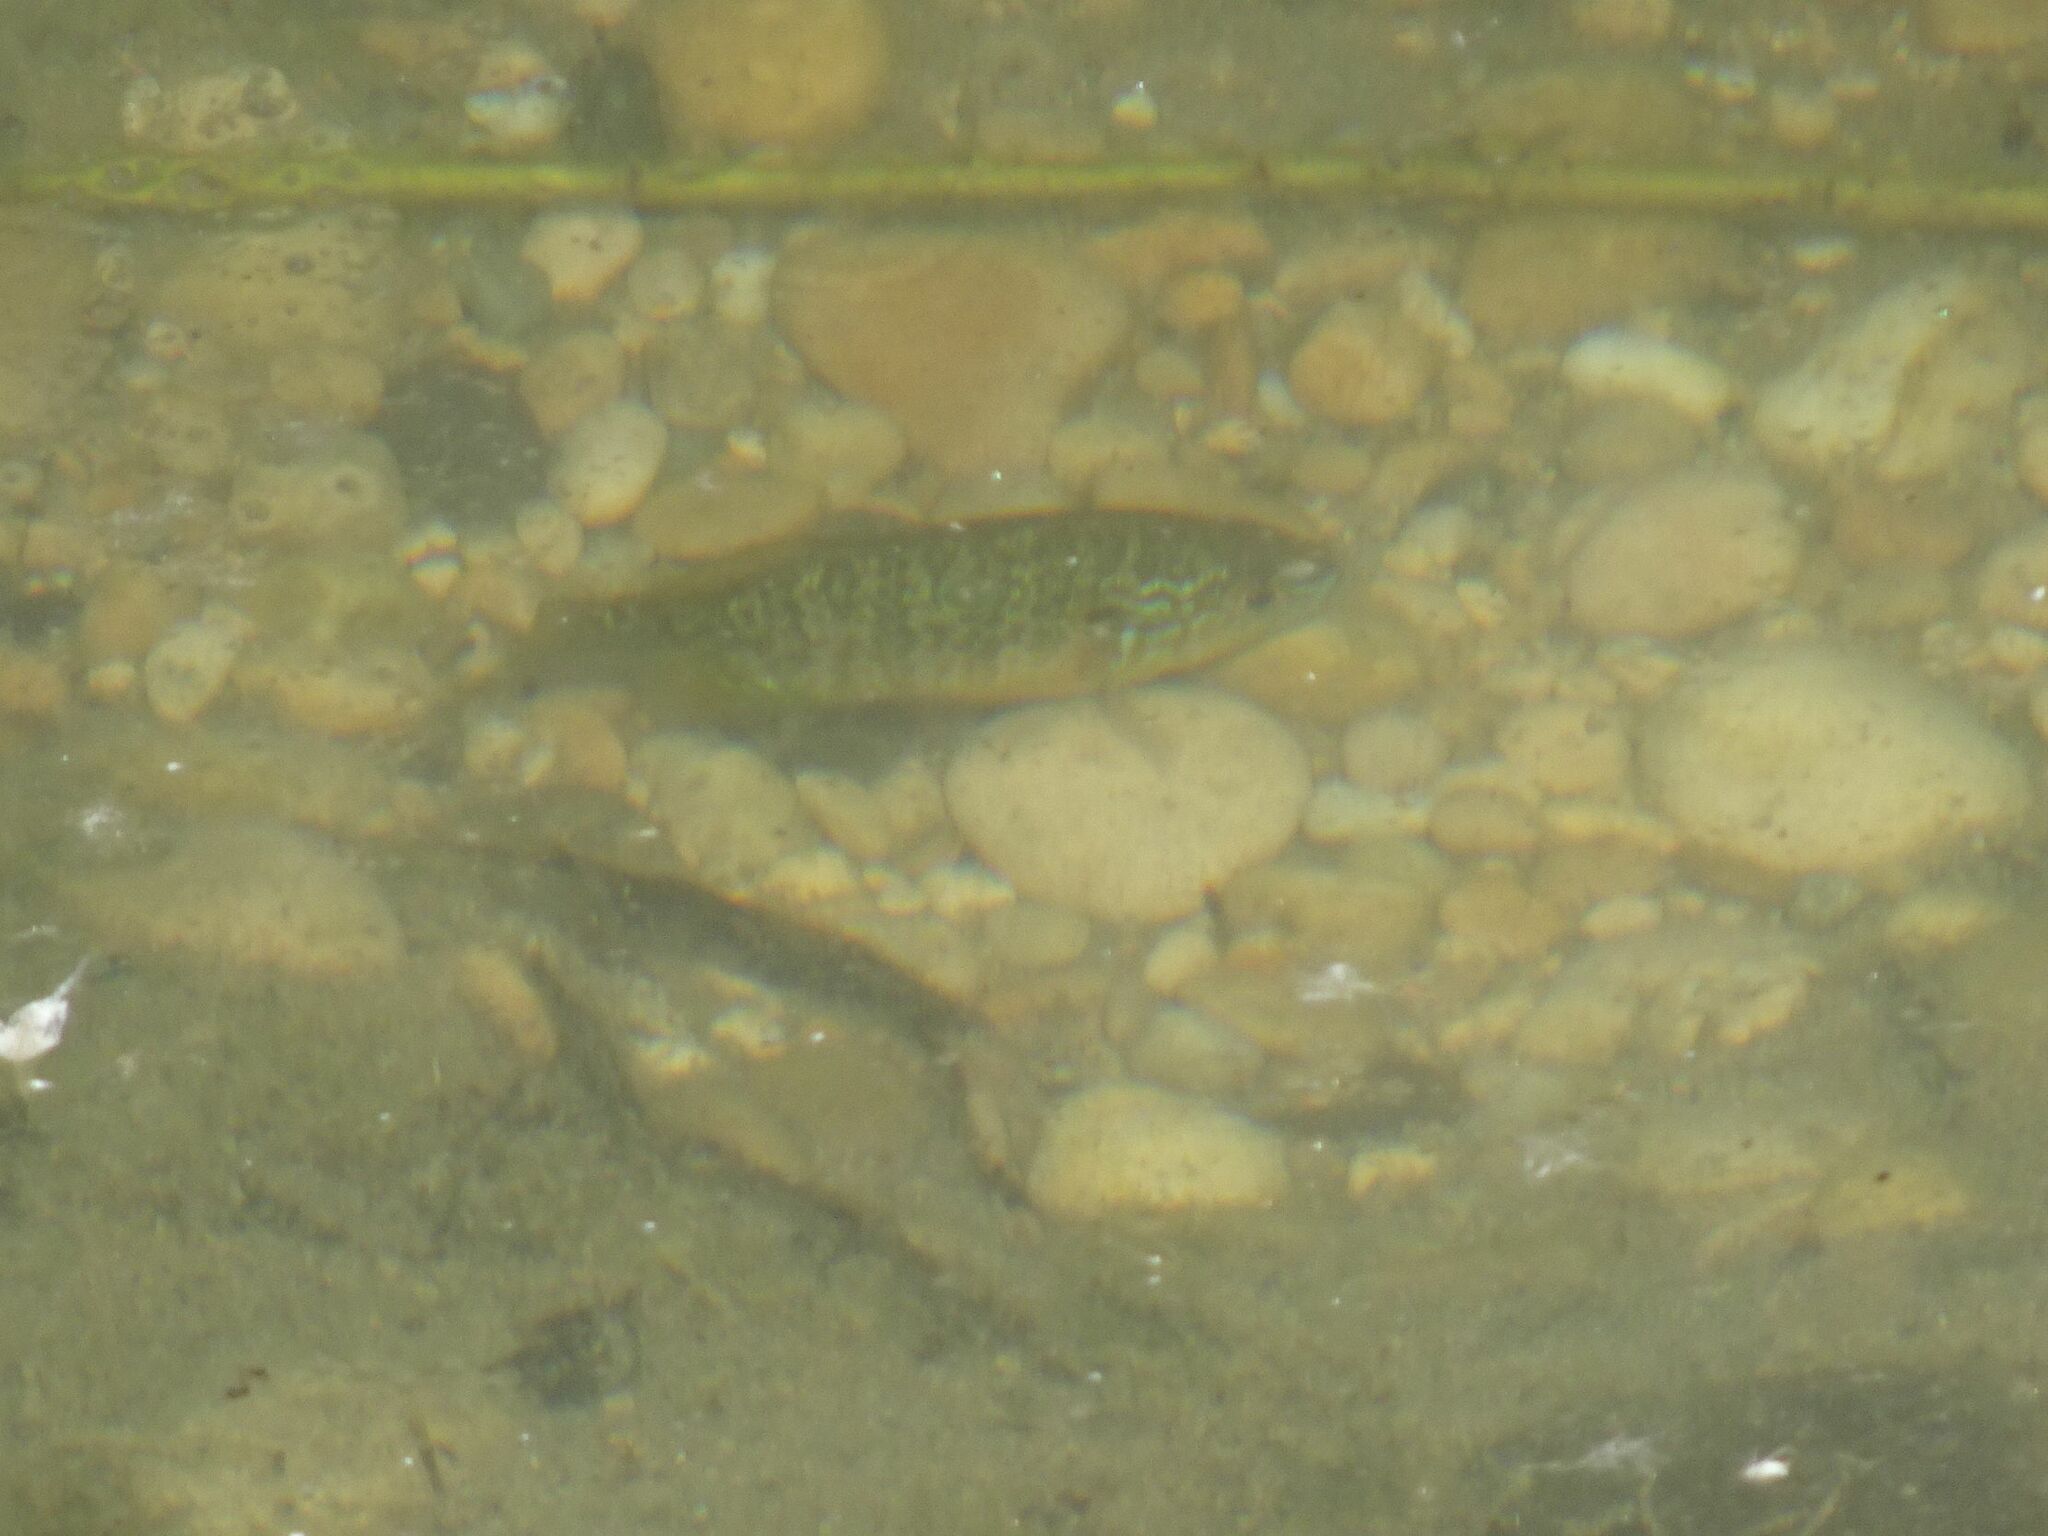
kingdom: Animalia
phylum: Chordata
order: Perciformes
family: Centrarchidae
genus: Lepomis
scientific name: Lepomis gibbosus
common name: Pumpkinseed
